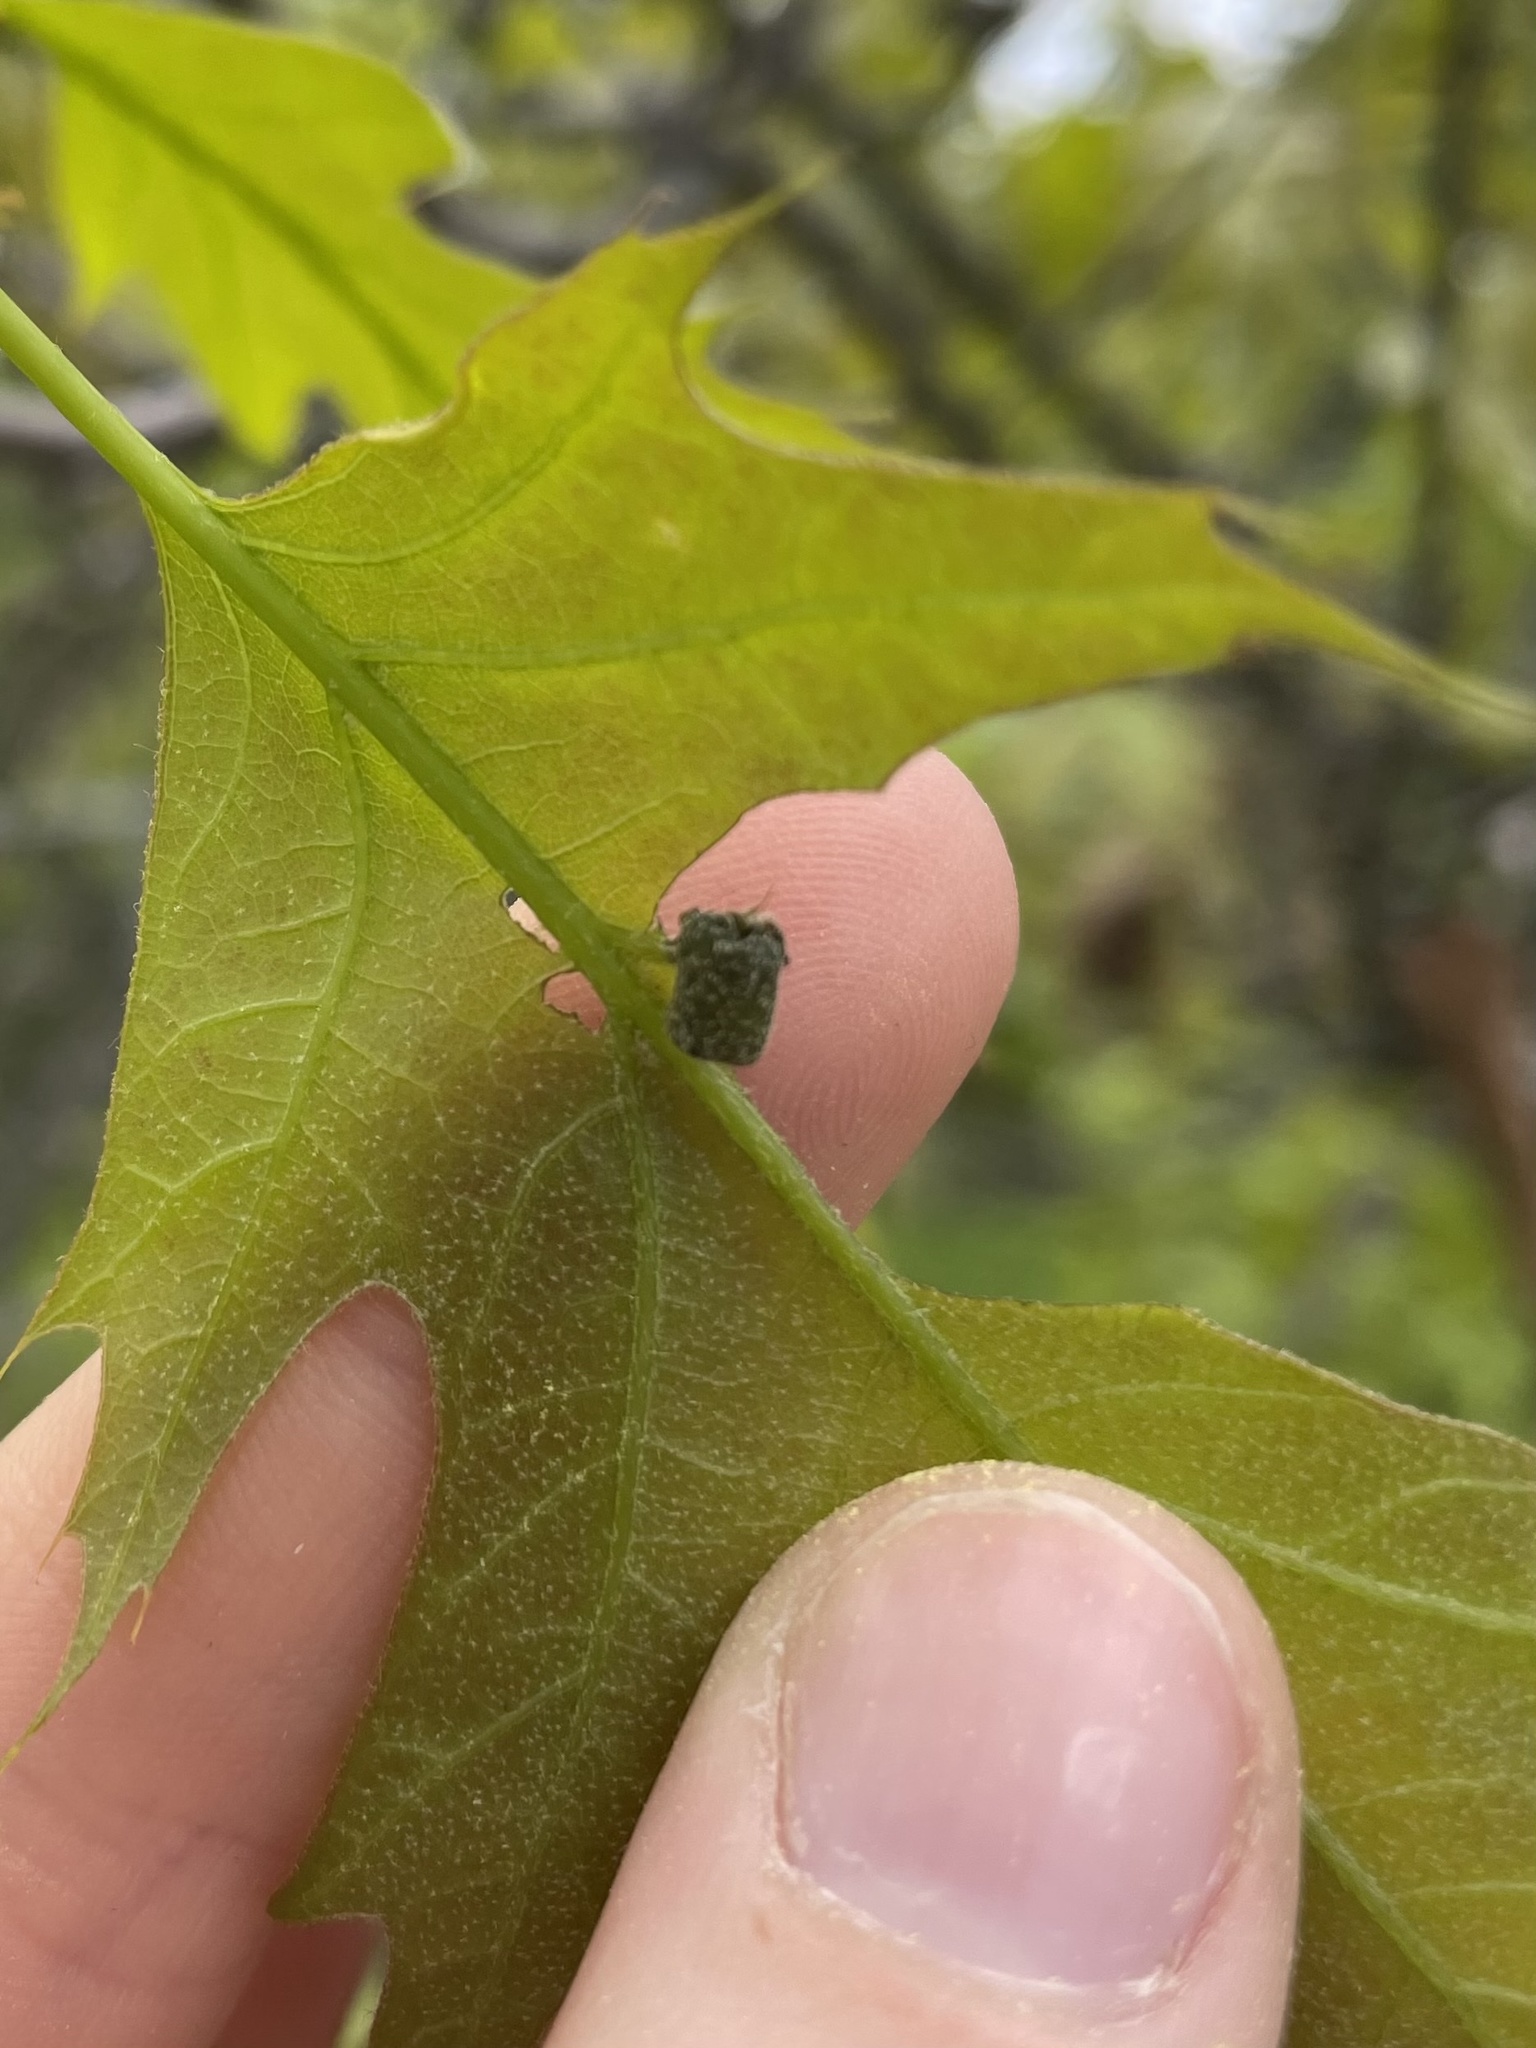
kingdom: Animalia
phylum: Arthropoda
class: Insecta
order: Coleoptera
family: Attelabidae
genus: Homoeolabus
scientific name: Homoeolabus analis
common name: Oak leaf rolling weevil
